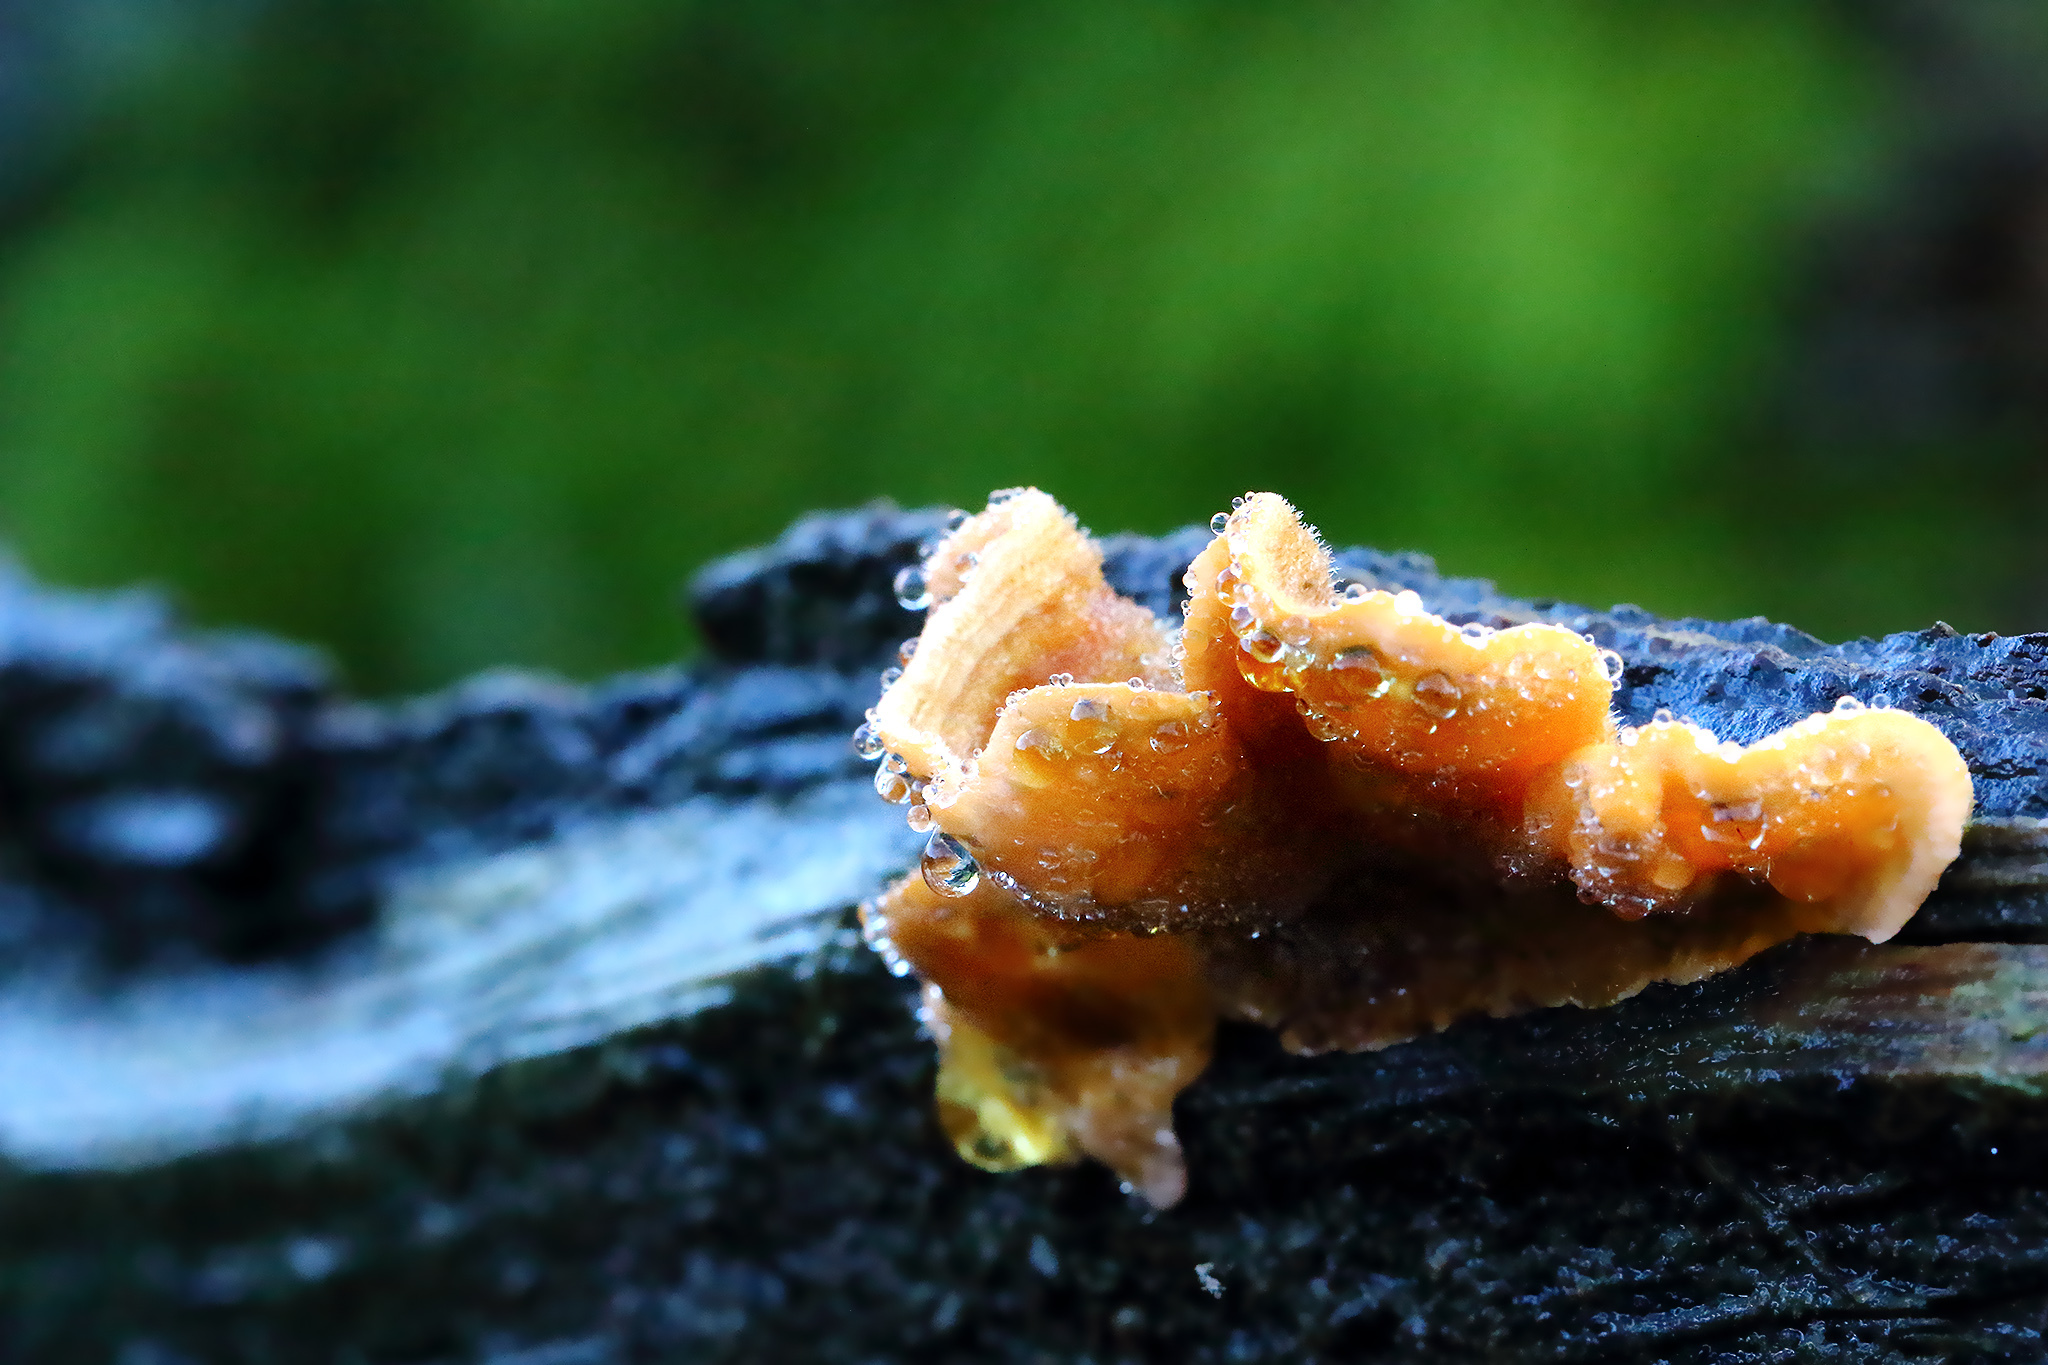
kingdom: Fungi
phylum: Basidiomycota
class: Agaricomycetes
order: Russulales
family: Stereaceae
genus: Stereum
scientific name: Stereum hirsutum
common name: Hairy curtain crust
